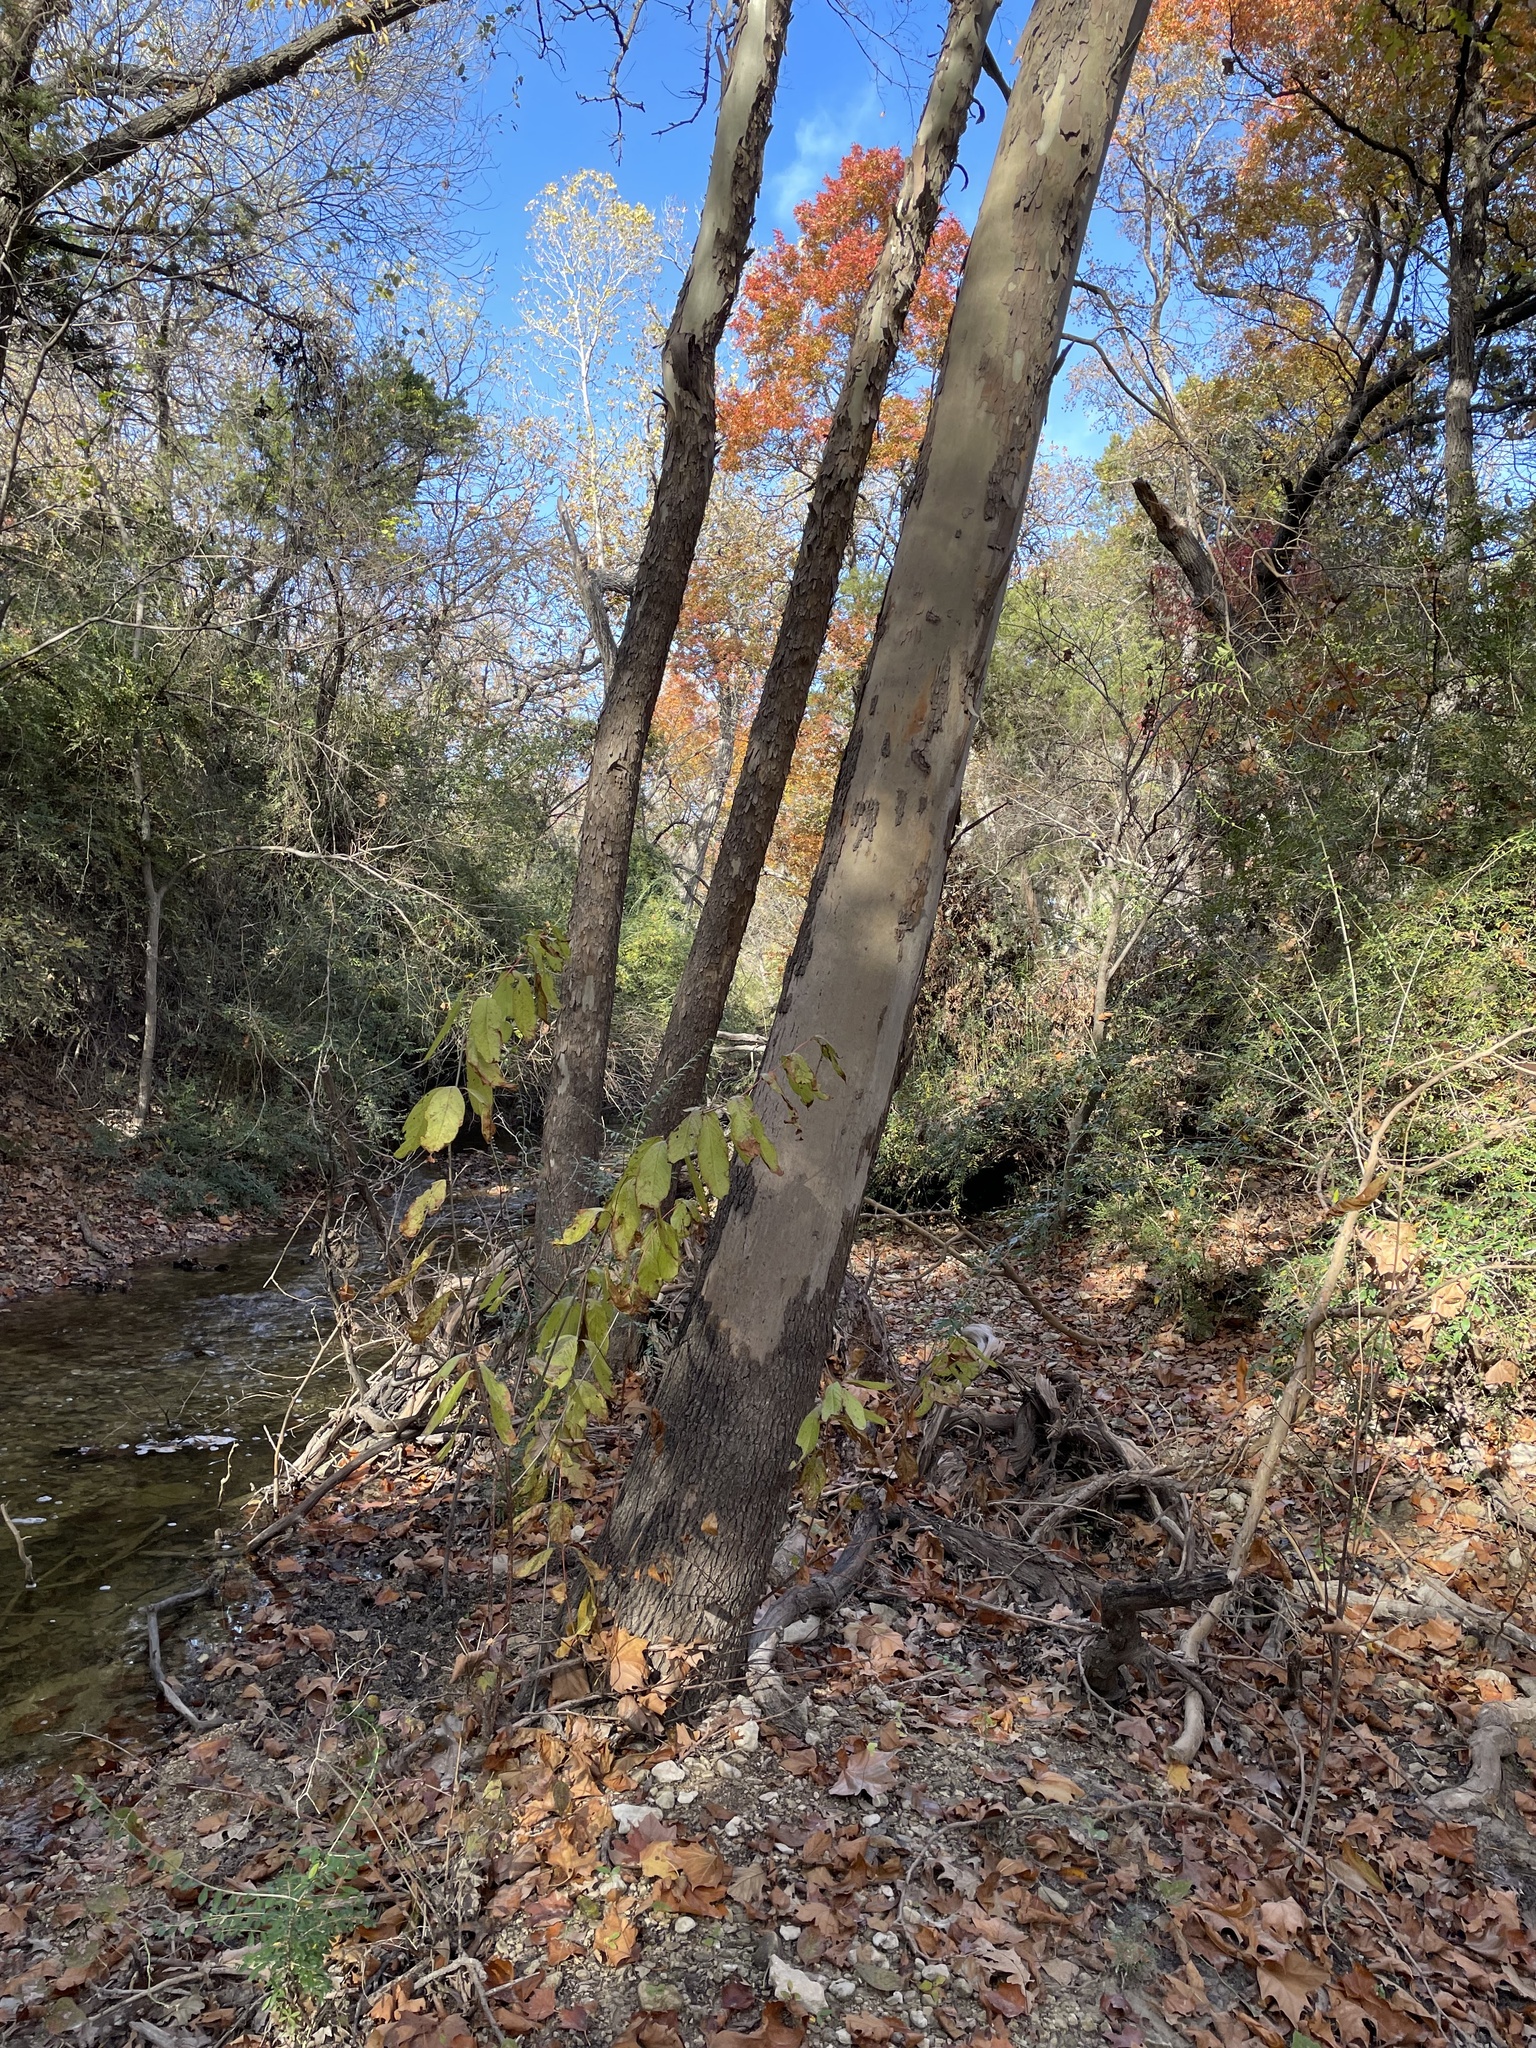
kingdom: Plantae
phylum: Tracheophyta
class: Magnoliopsida
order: Proteales
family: Platanaceae
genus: Platanus
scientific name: Platanus occidentalis
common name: American sycamore
